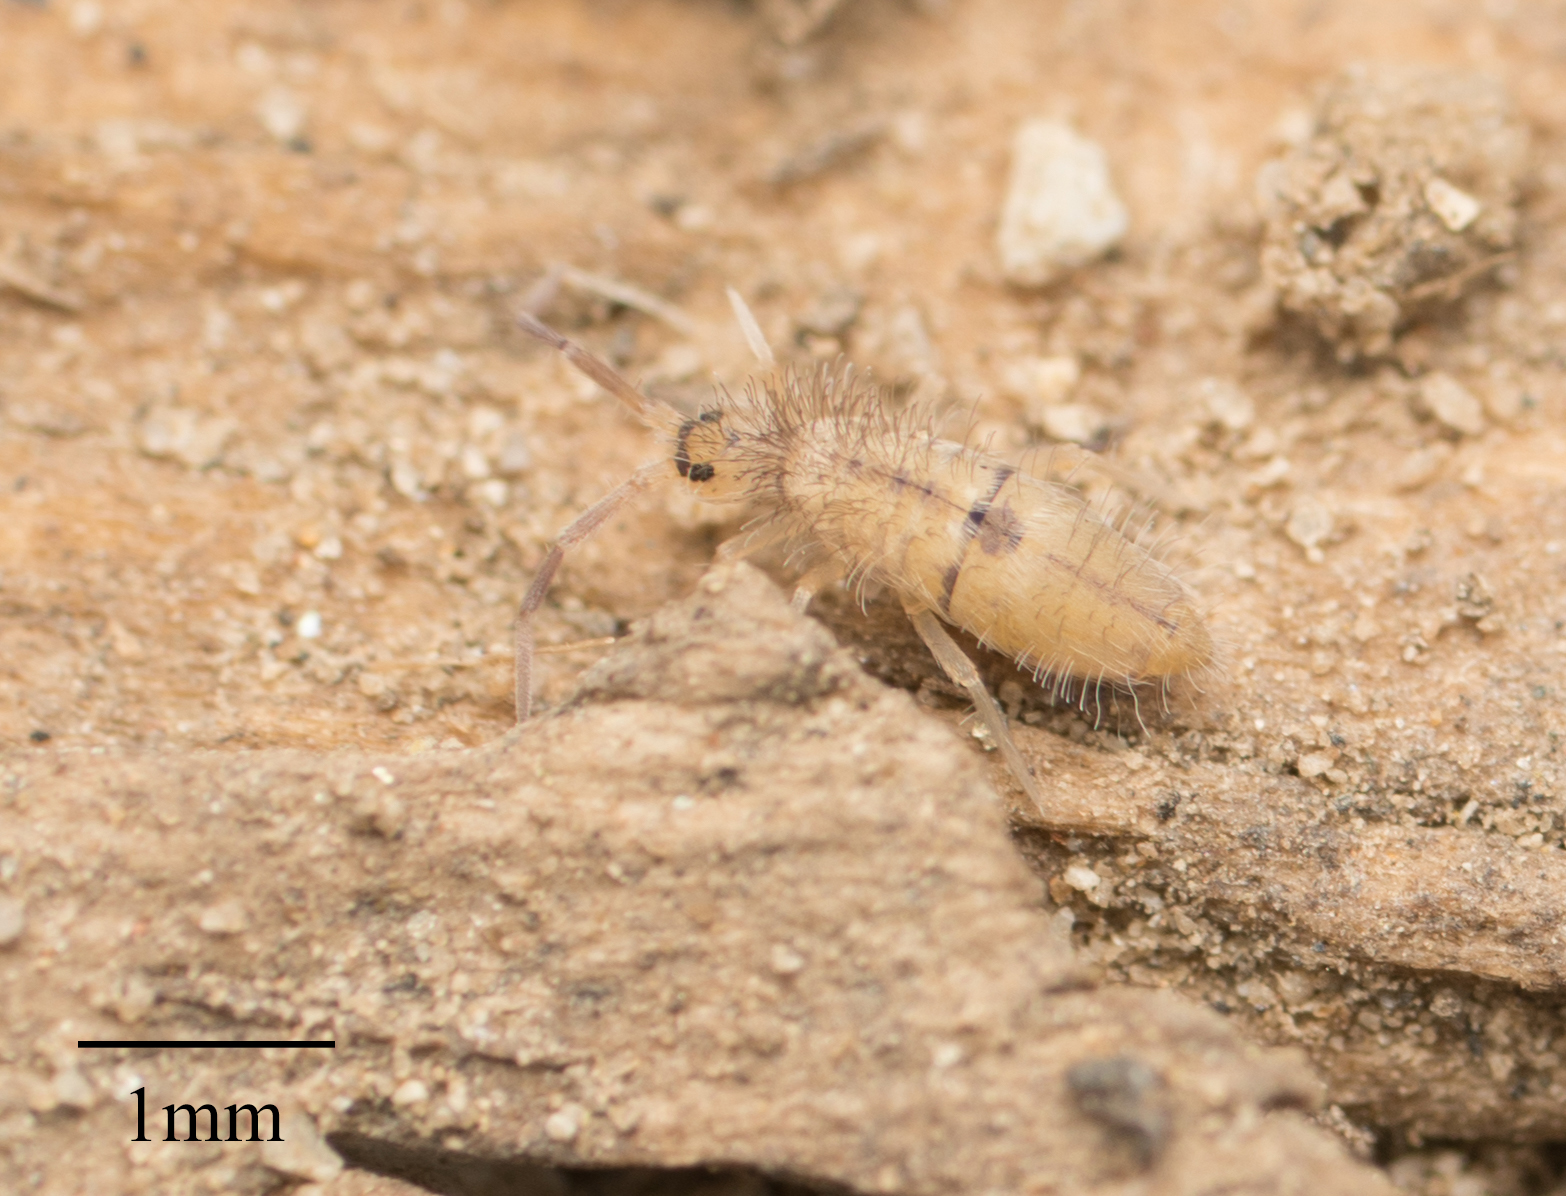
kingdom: Animalia
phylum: Arthropoda
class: Collembola
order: Entomobryomorpha
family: Entomobryidae
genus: Entomobrya
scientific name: Entomobrya unostrigata
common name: Springtail
